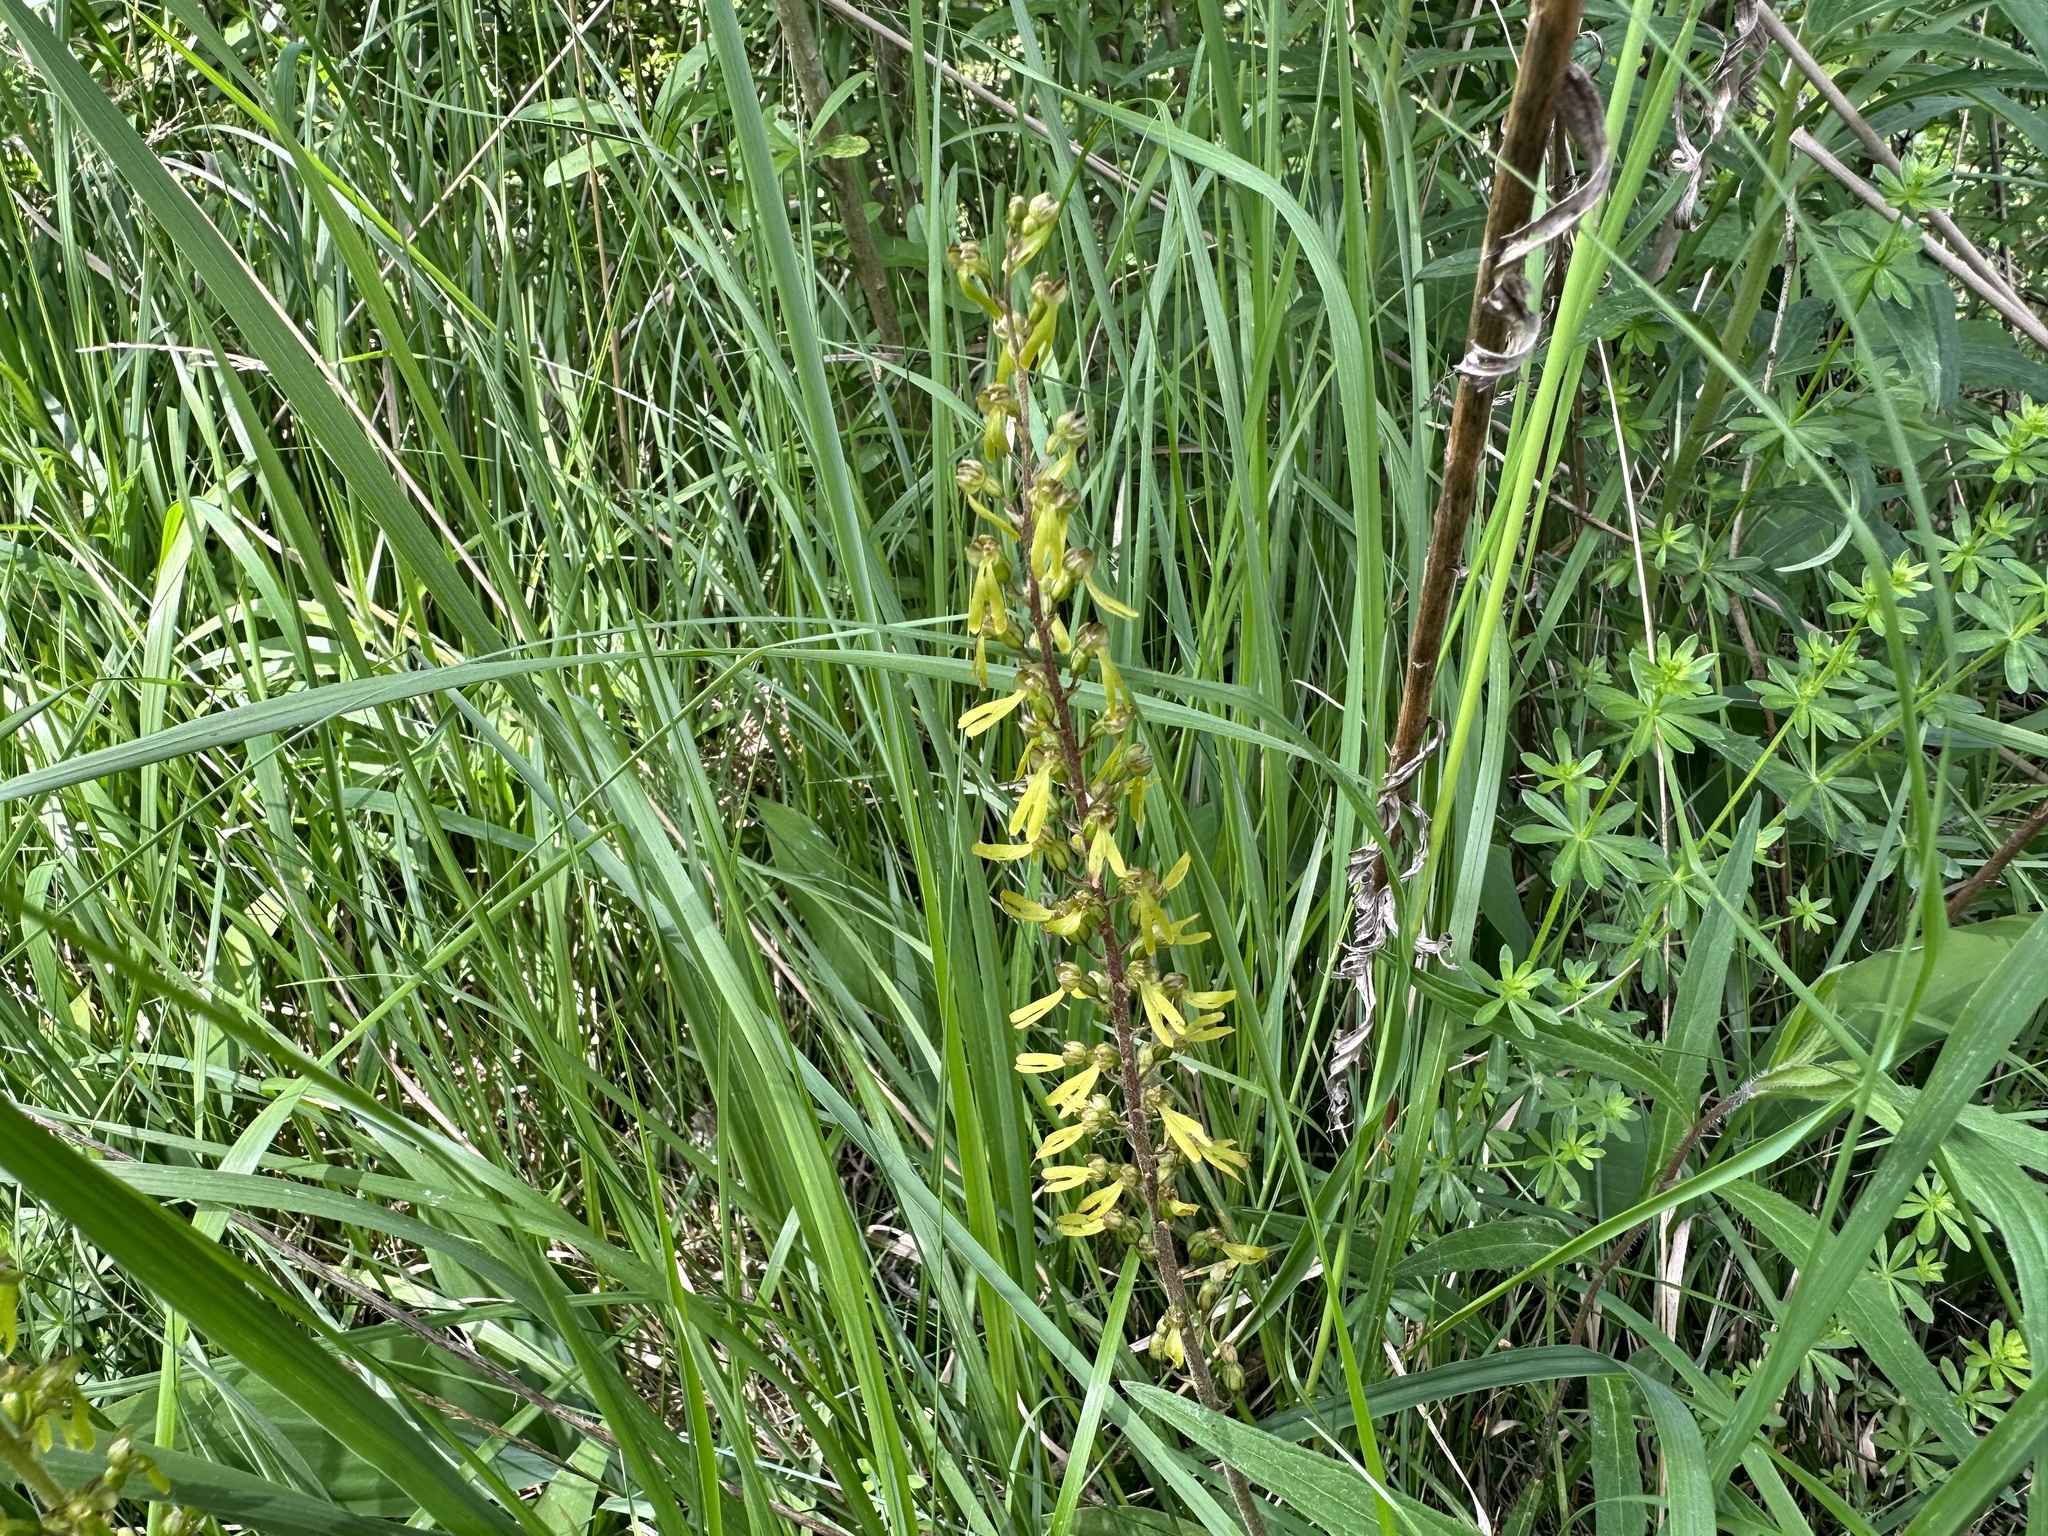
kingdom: Plantae
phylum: Tracheophyta
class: Liliopsida
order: Asparagales
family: Orchidaceae
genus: Neottia
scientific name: Neottia ovata
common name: Common twayblade
